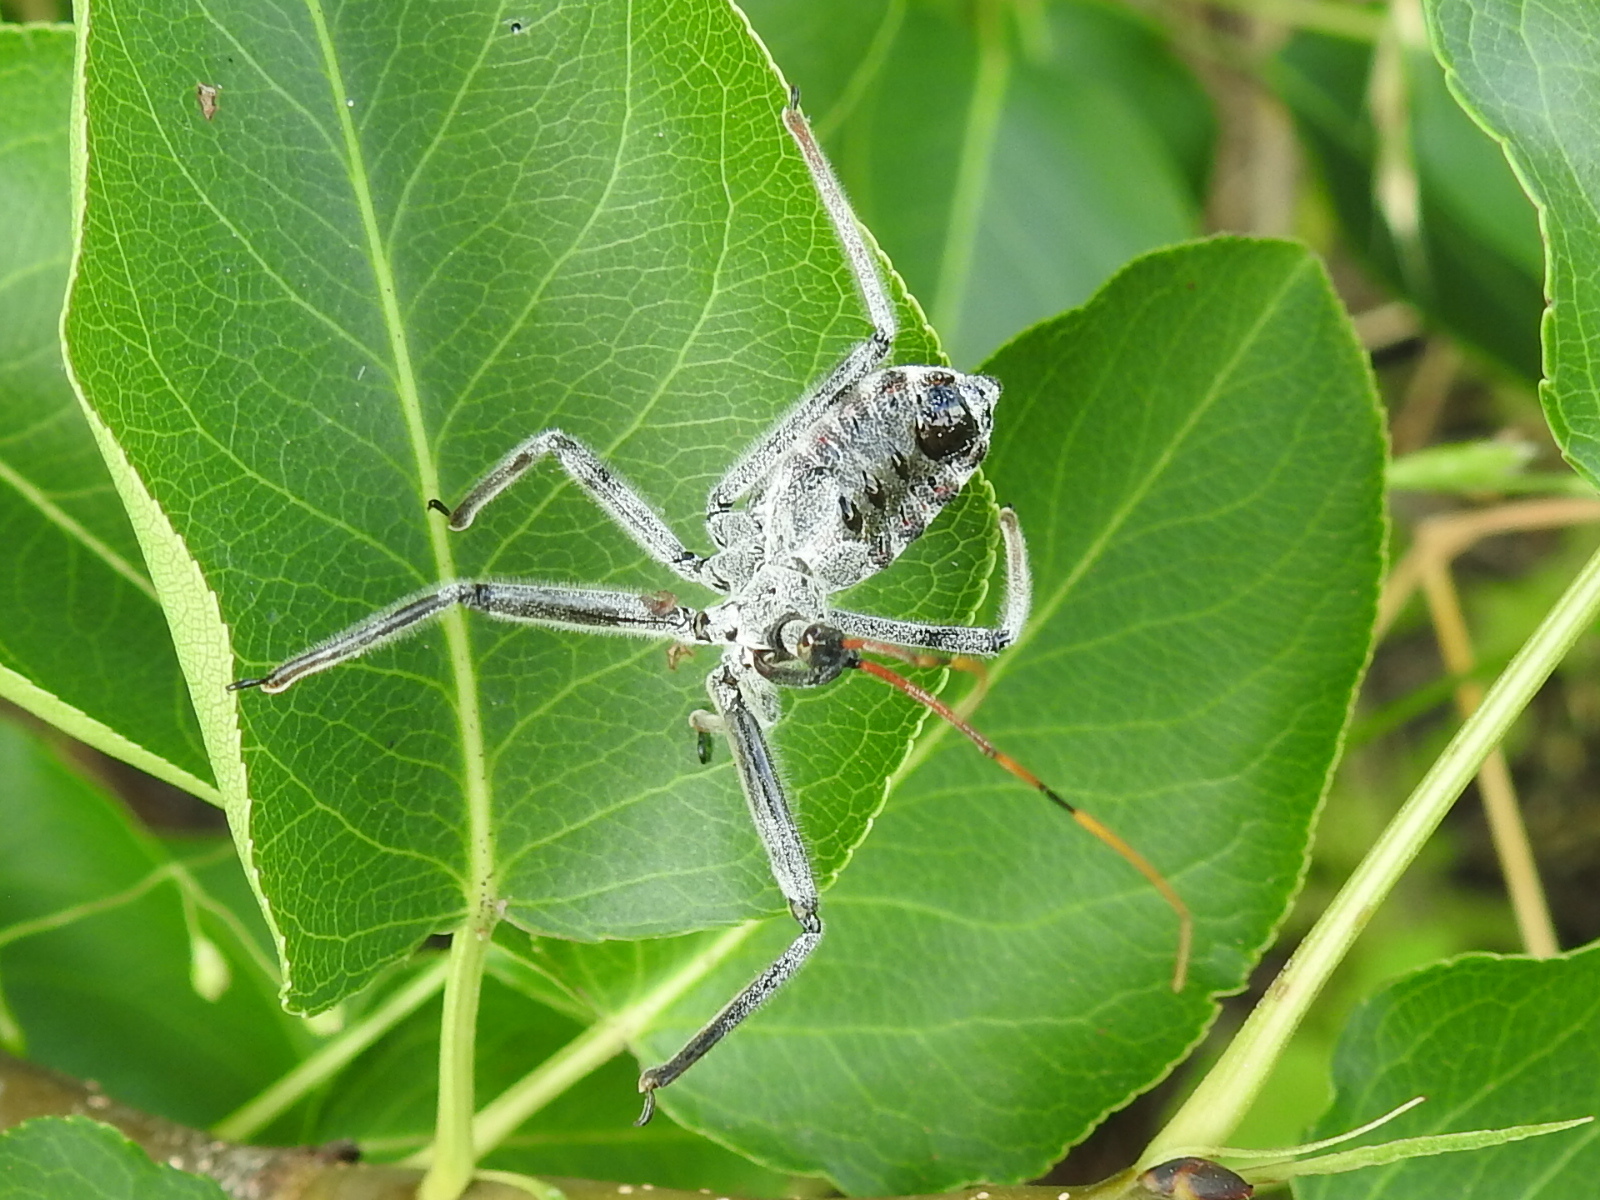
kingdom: Animalia
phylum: Arthropoda
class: Insecta
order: Hemiptera
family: Reduviidae
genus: Arilus
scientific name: Arilus cristatus
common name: North american wheel bug
